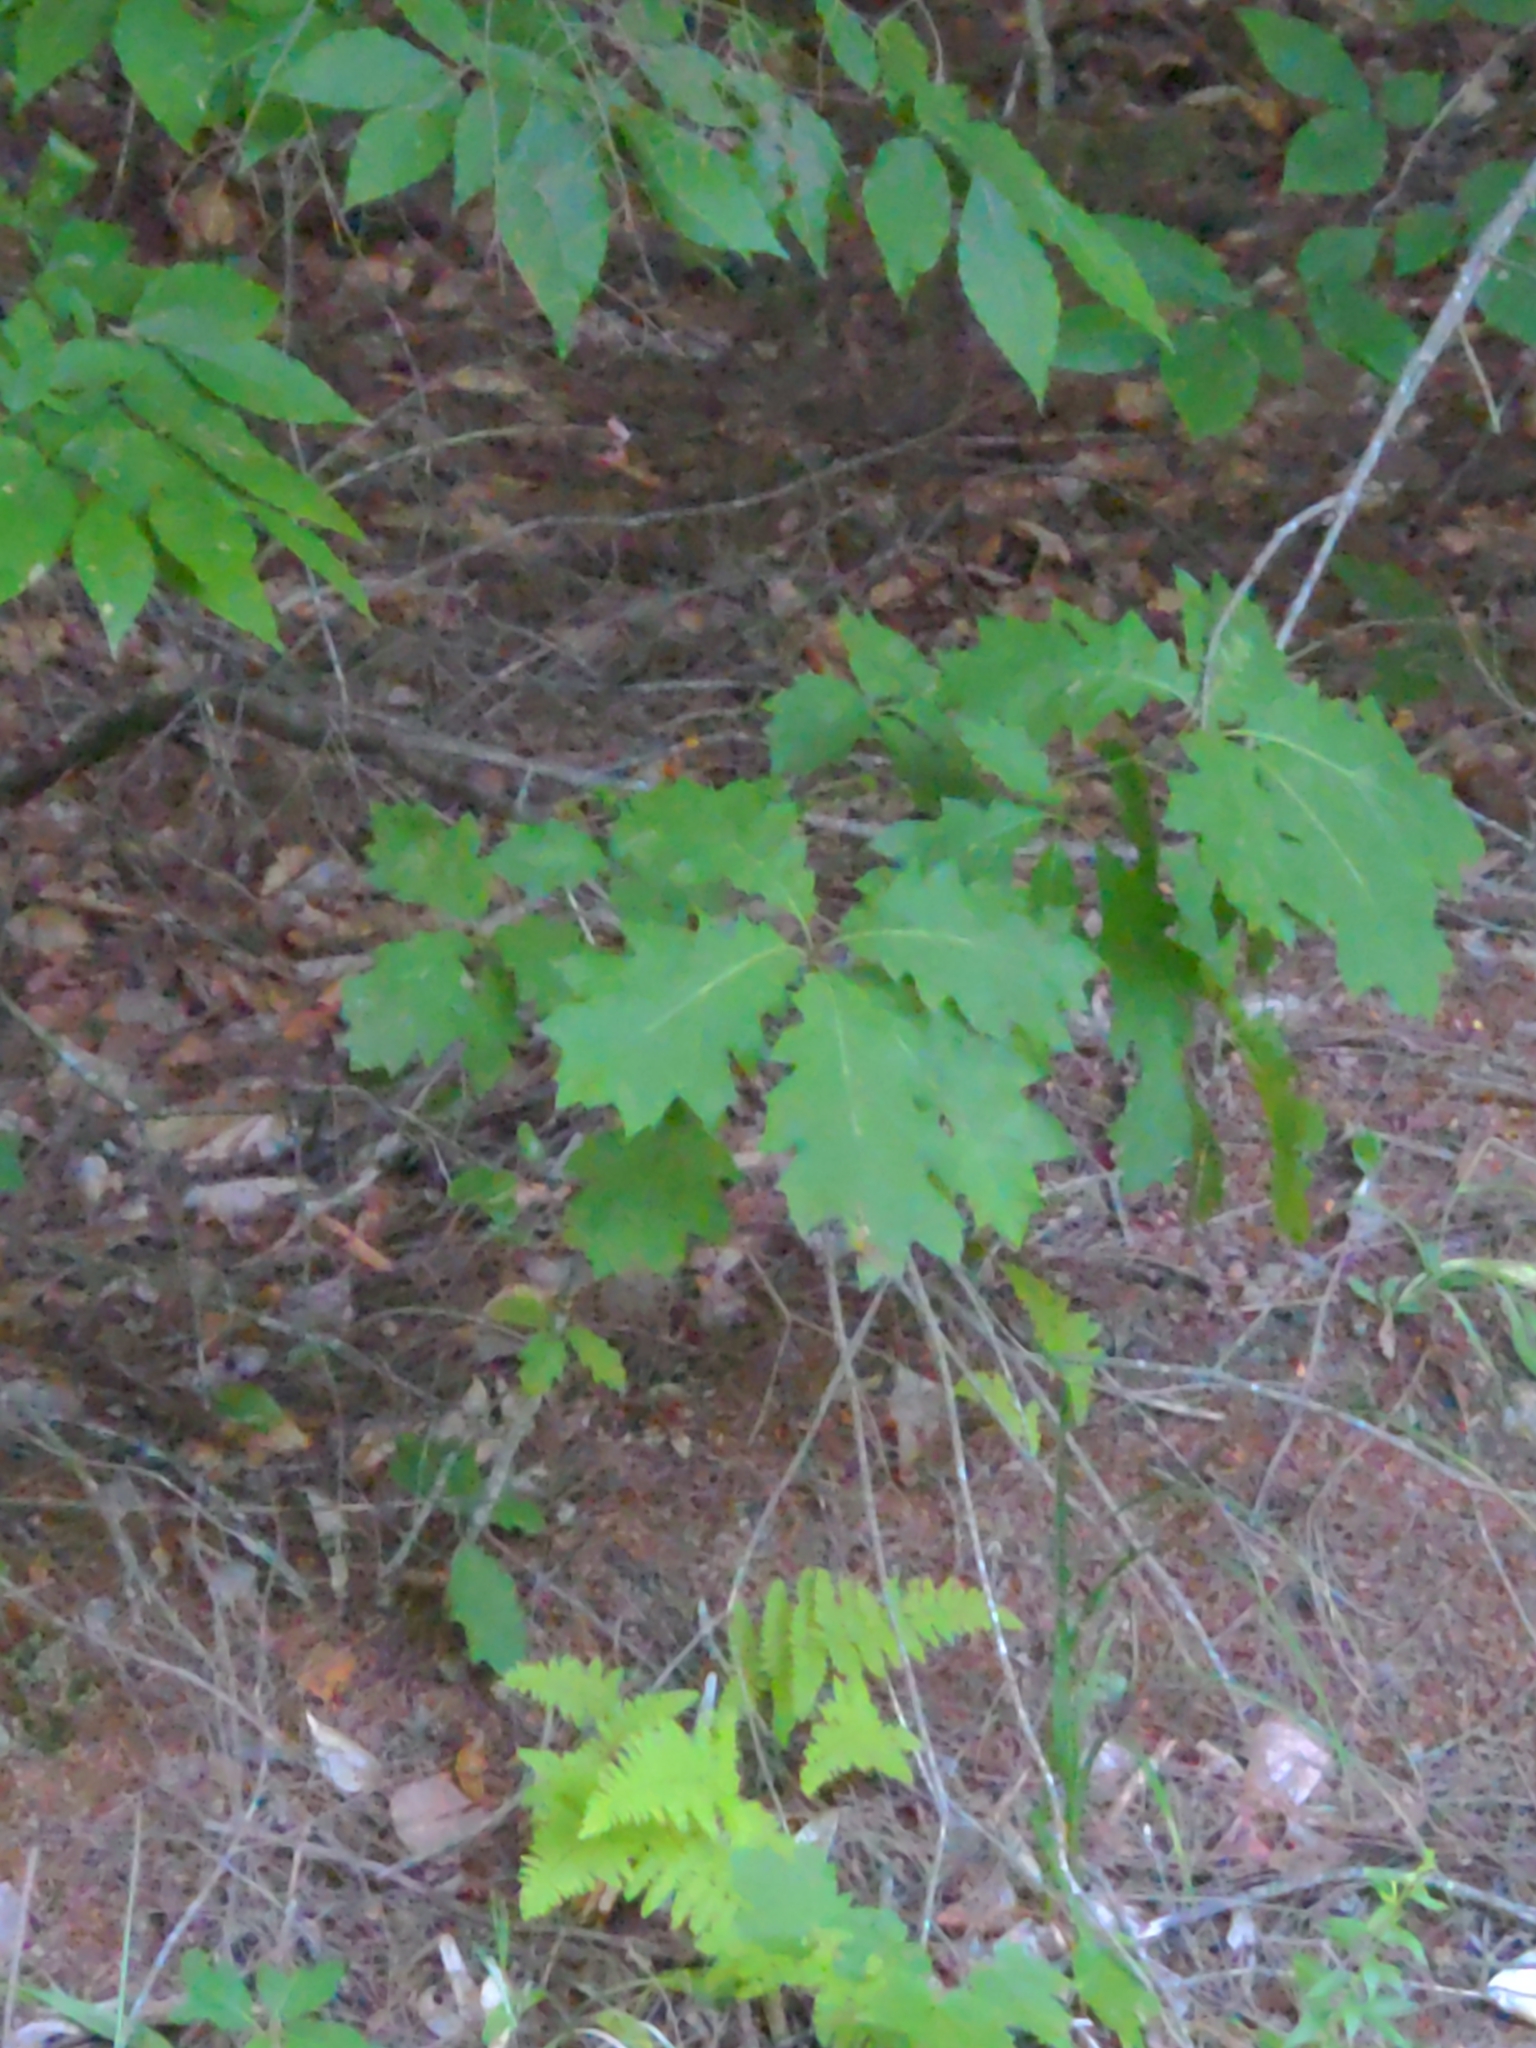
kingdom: Plantae
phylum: Tracheophyta
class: Magnoliopsida
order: Fagales
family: Fagaceae
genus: Quercus
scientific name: Quercus rubra
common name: Red oak
